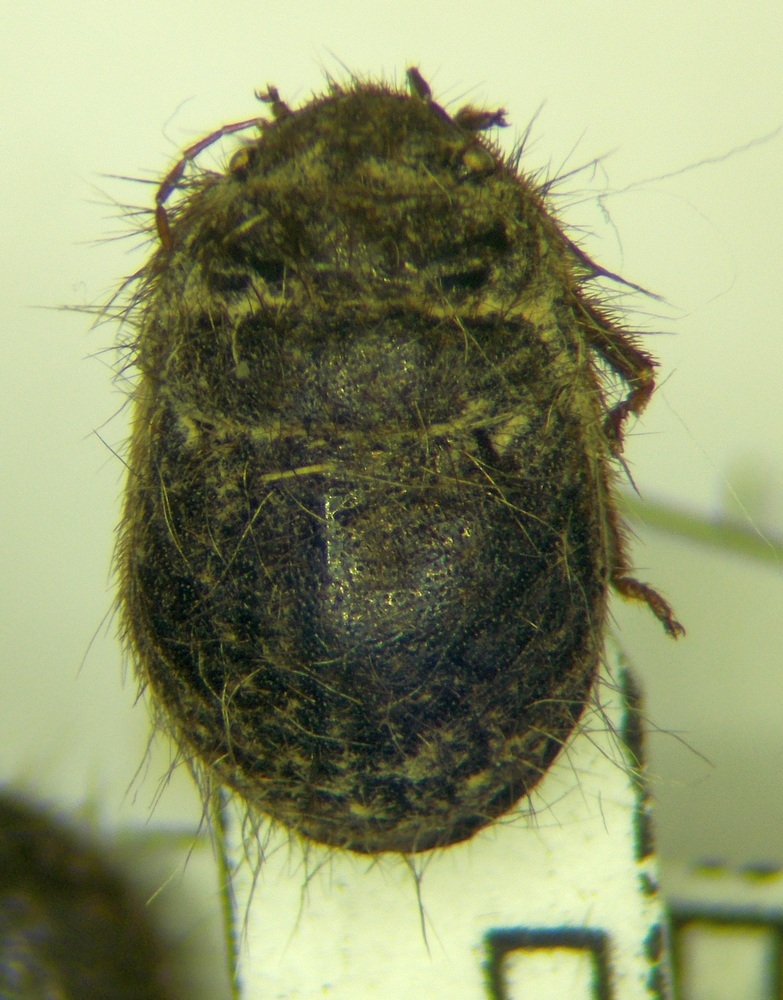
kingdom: Animalia
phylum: Arthropoda
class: Insecta
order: Hemiptera
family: Scutelleridae
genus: Irochrotus
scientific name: Irochrotus lanatus
